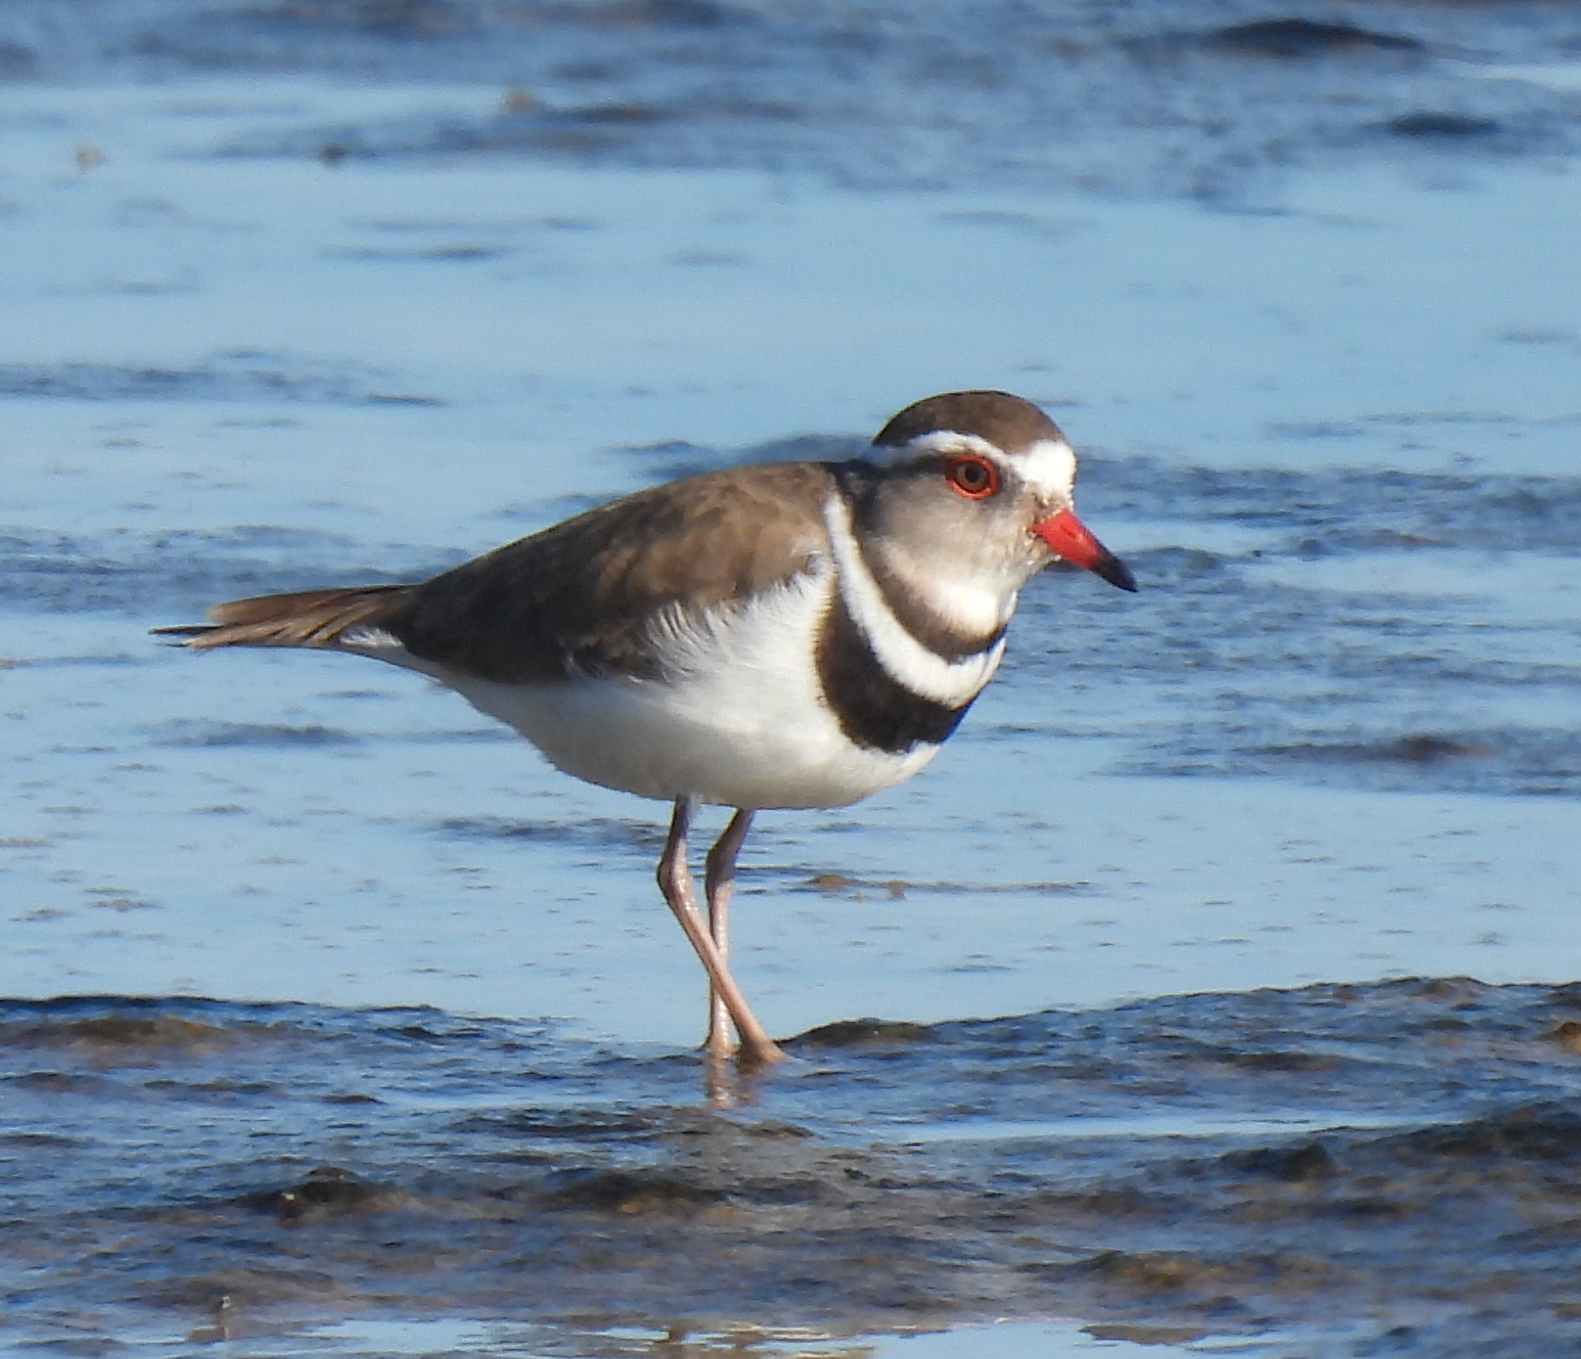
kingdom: Animalia
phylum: Chordata
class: Aves
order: Charadriiformes
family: Charadriidae
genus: Charadrius
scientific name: Charadrius tricollaris
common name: Three-banded plover
